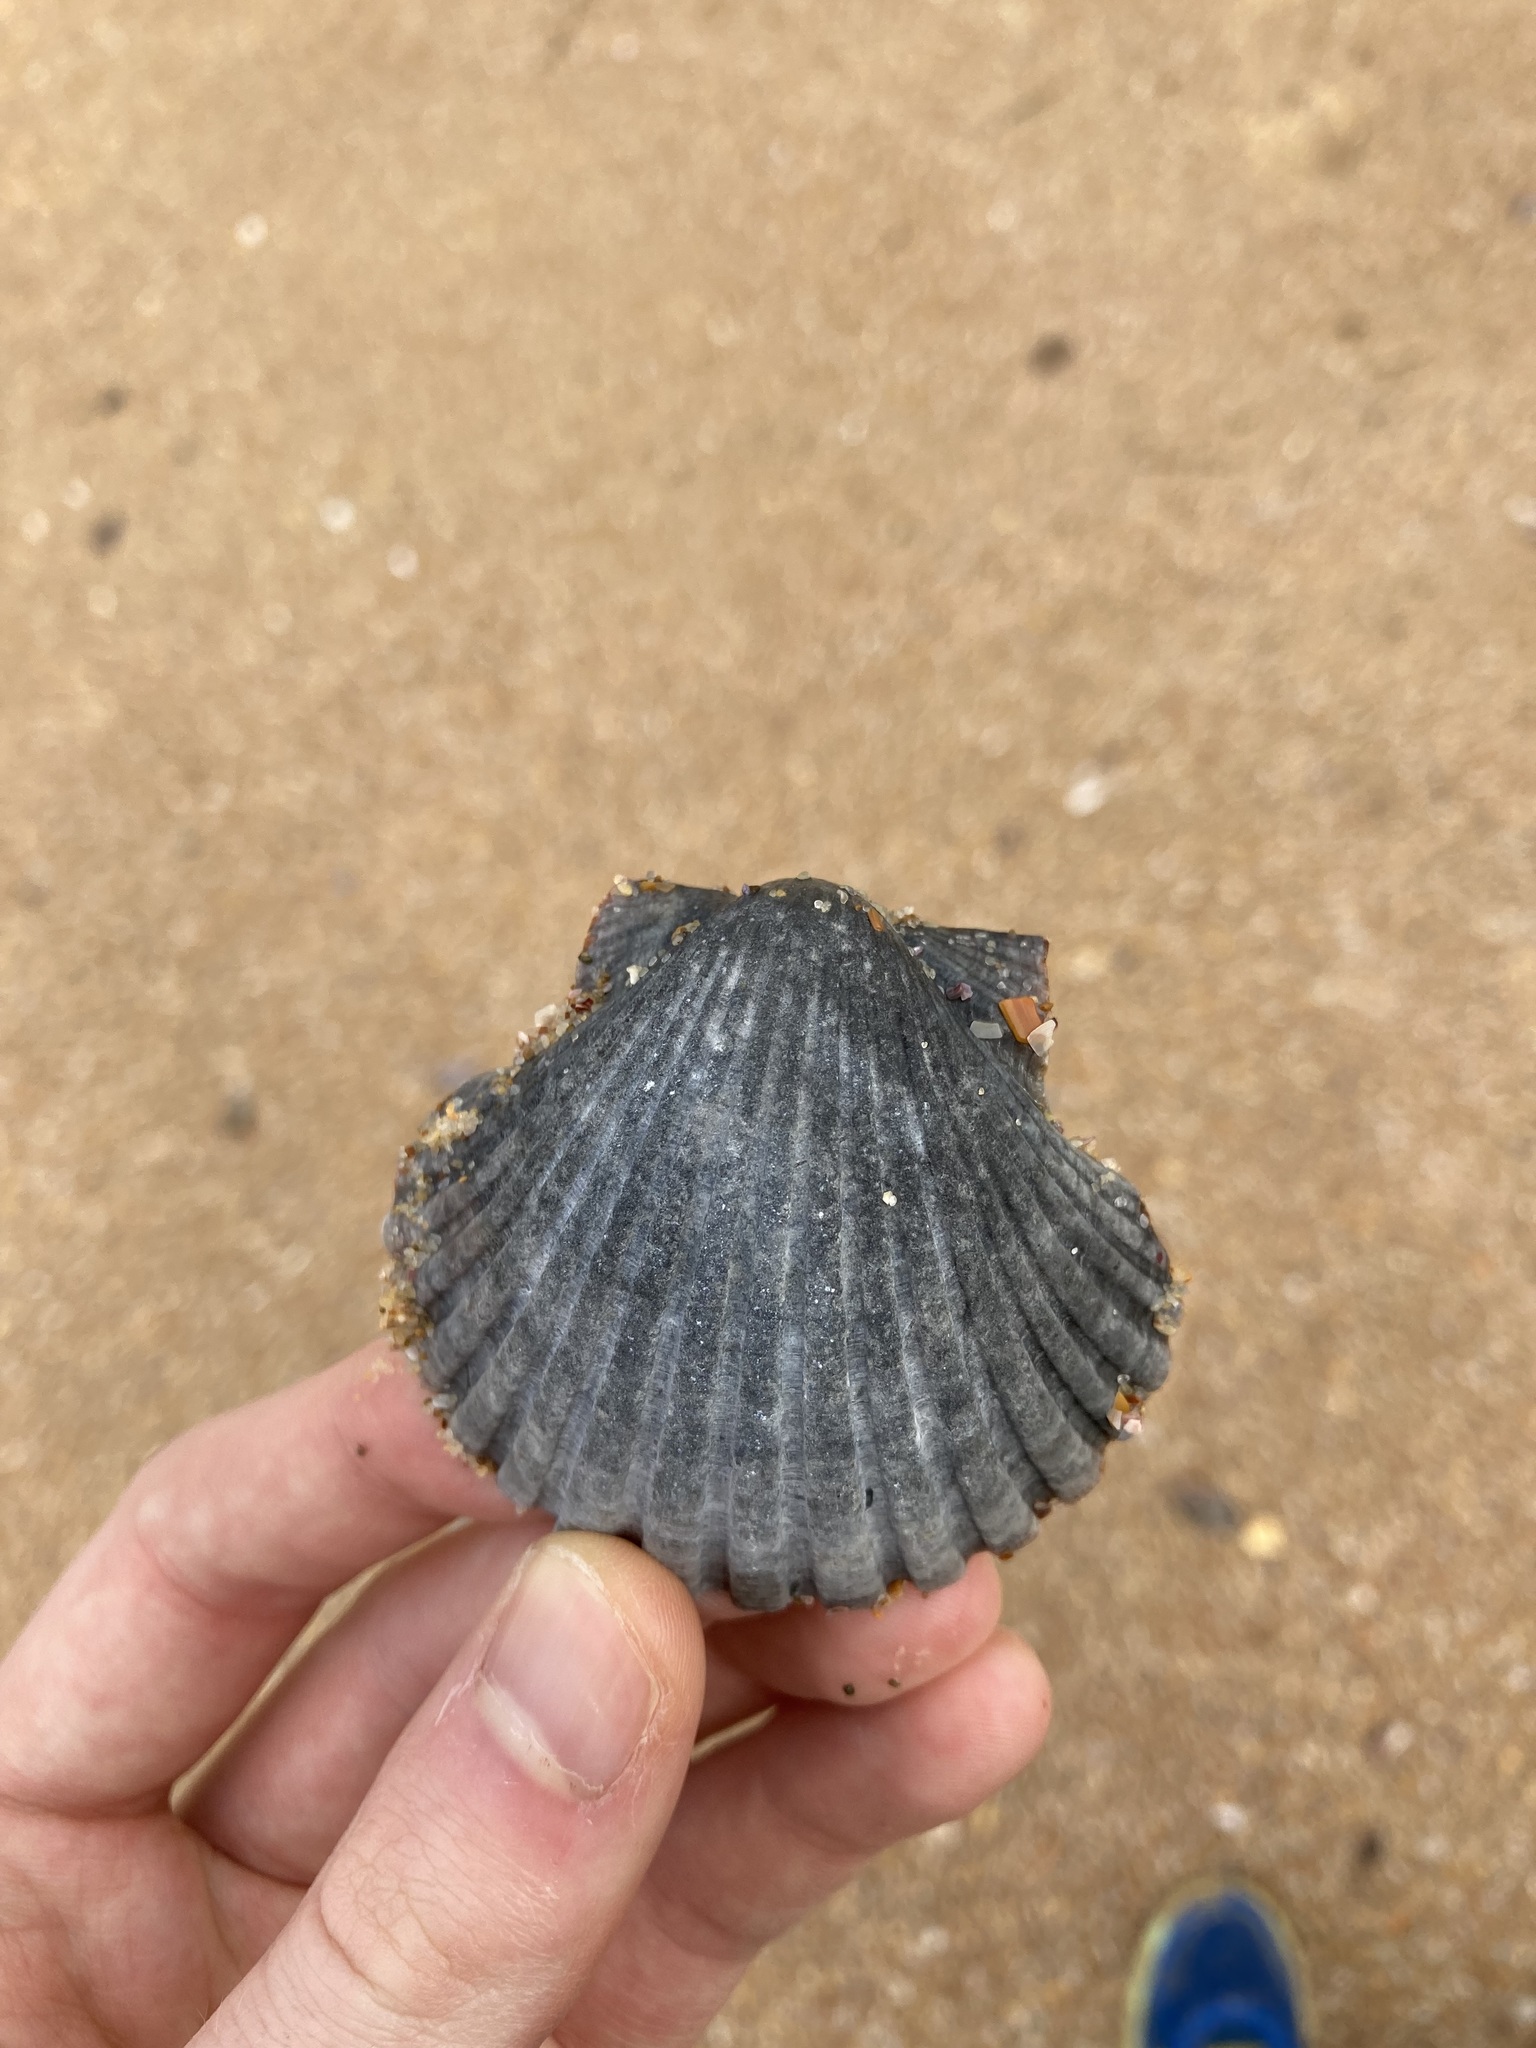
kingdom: Animalia
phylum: Mollusca
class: Bivalvia
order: Pectinida
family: Pectinidae
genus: Pecten
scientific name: Pecten fumatus
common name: Australian scallop
